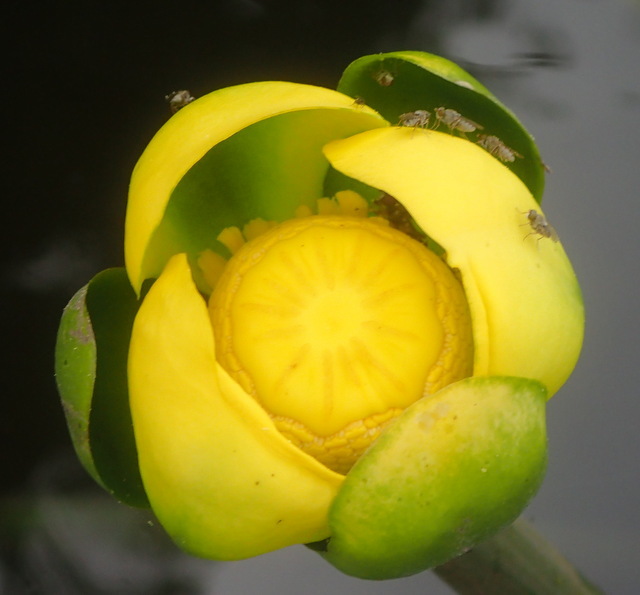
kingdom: Plantae
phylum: Tracheophyta
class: Magnoliopsida
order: Nymphaeales
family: Nymphaeaceae
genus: Nuphar
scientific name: Nuphar advena
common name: Spatter-dock
